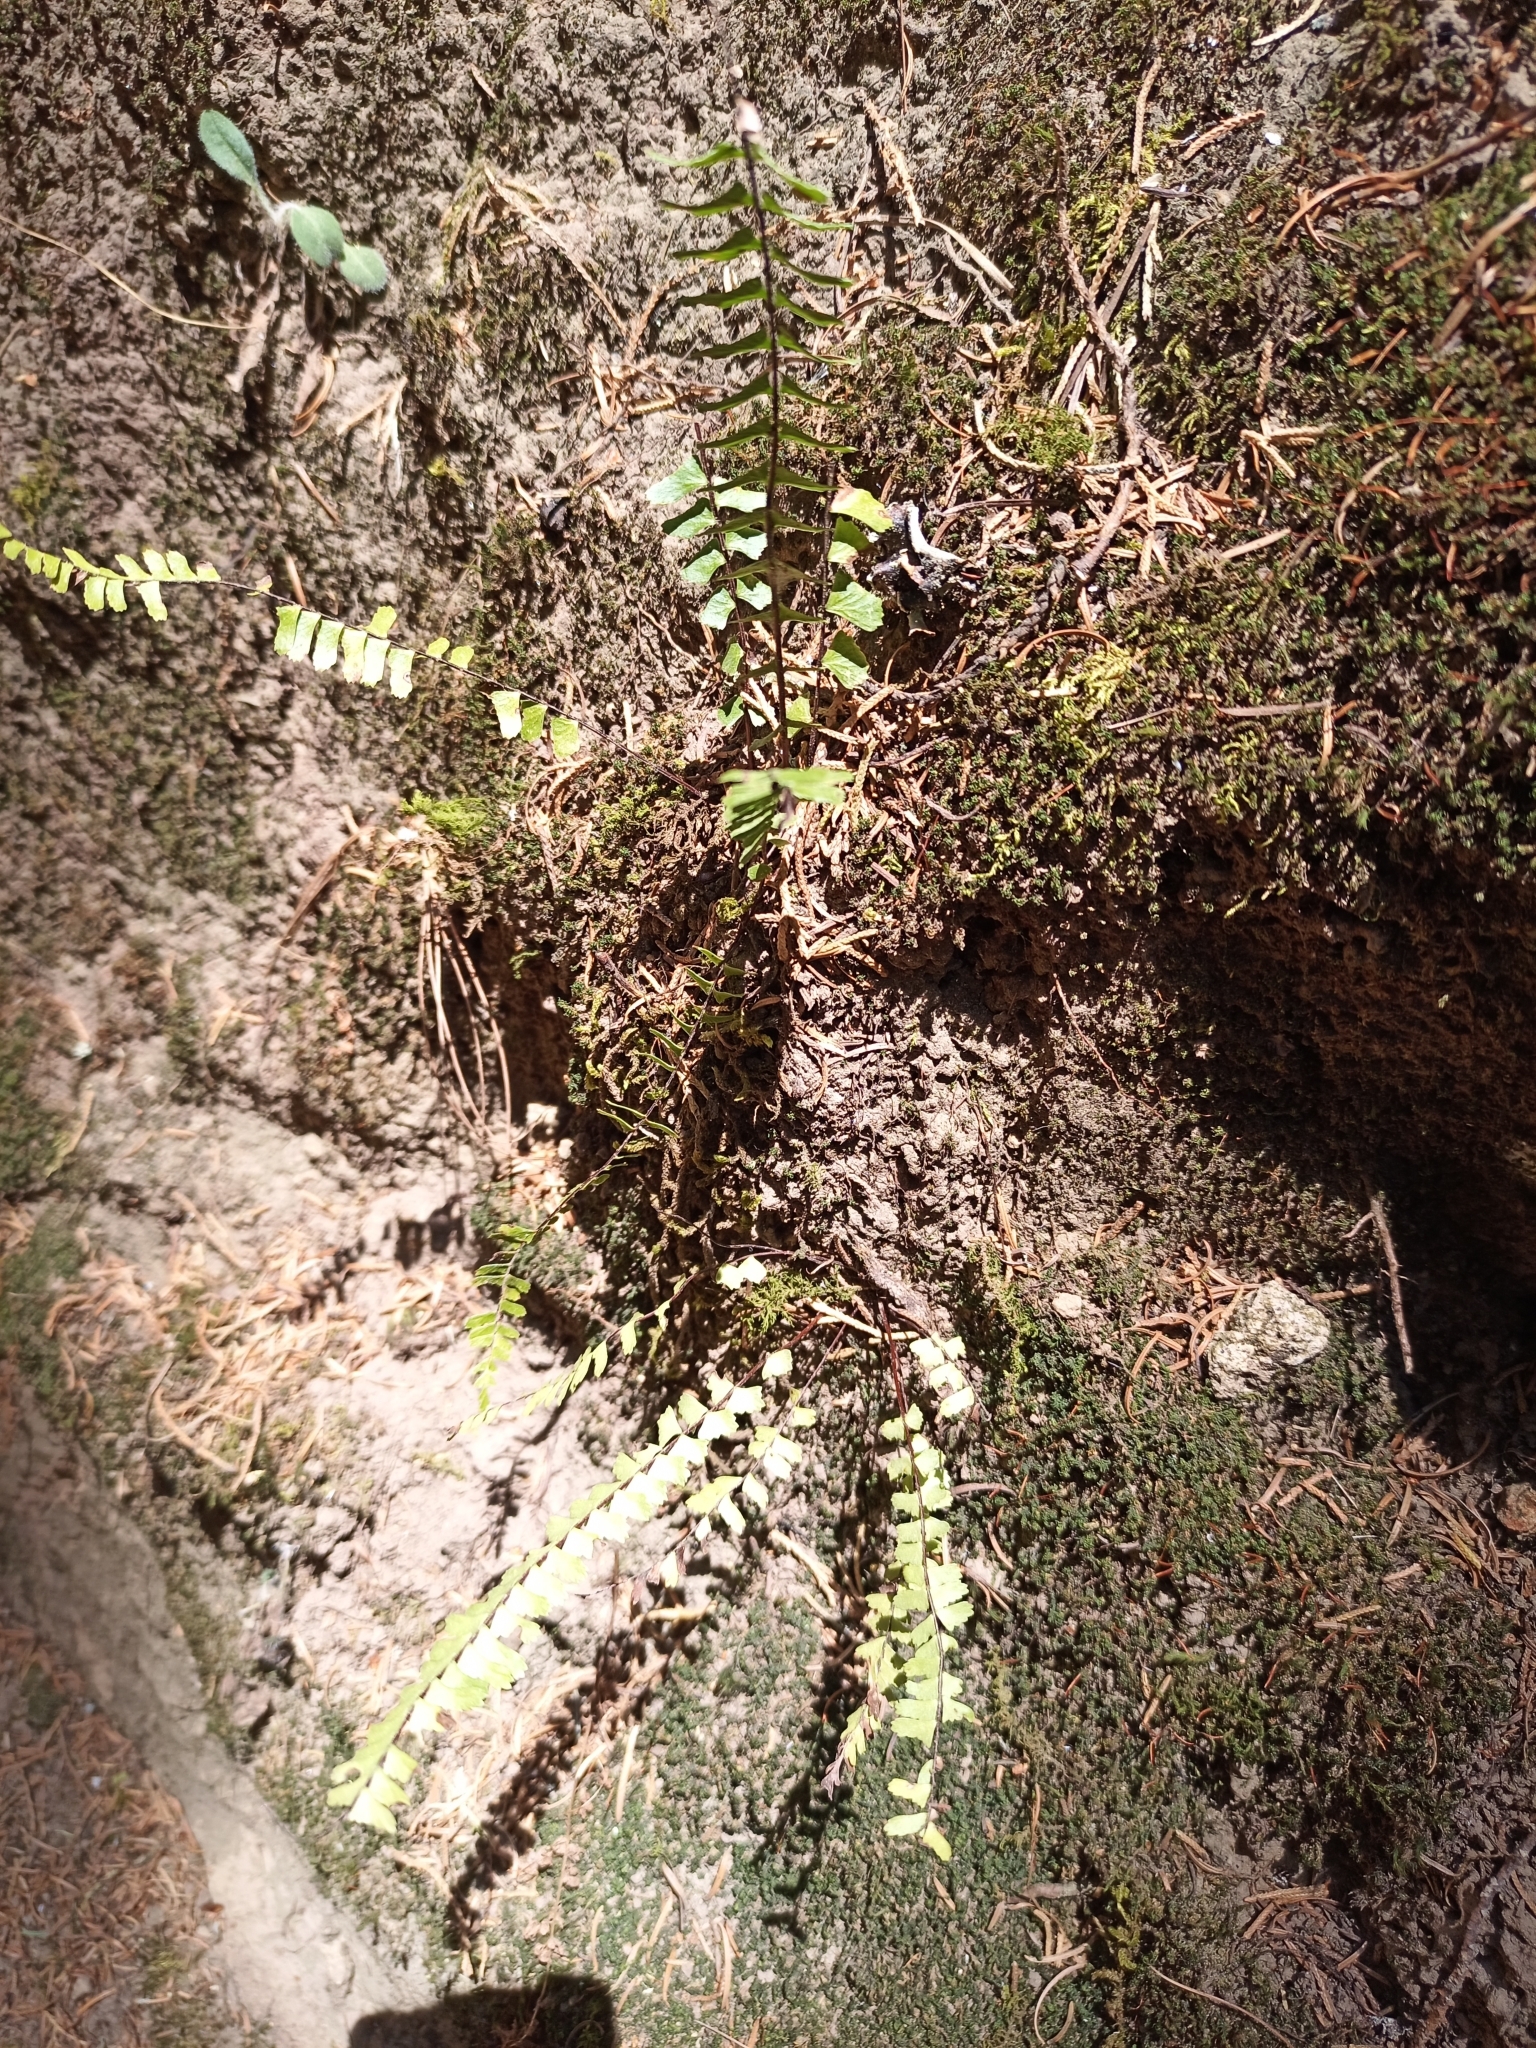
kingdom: Plantae
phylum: Tracheophyta
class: Polypodiopsida
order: Polypodiales
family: Aspleniaceae
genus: Asplenium
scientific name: Asplenium
